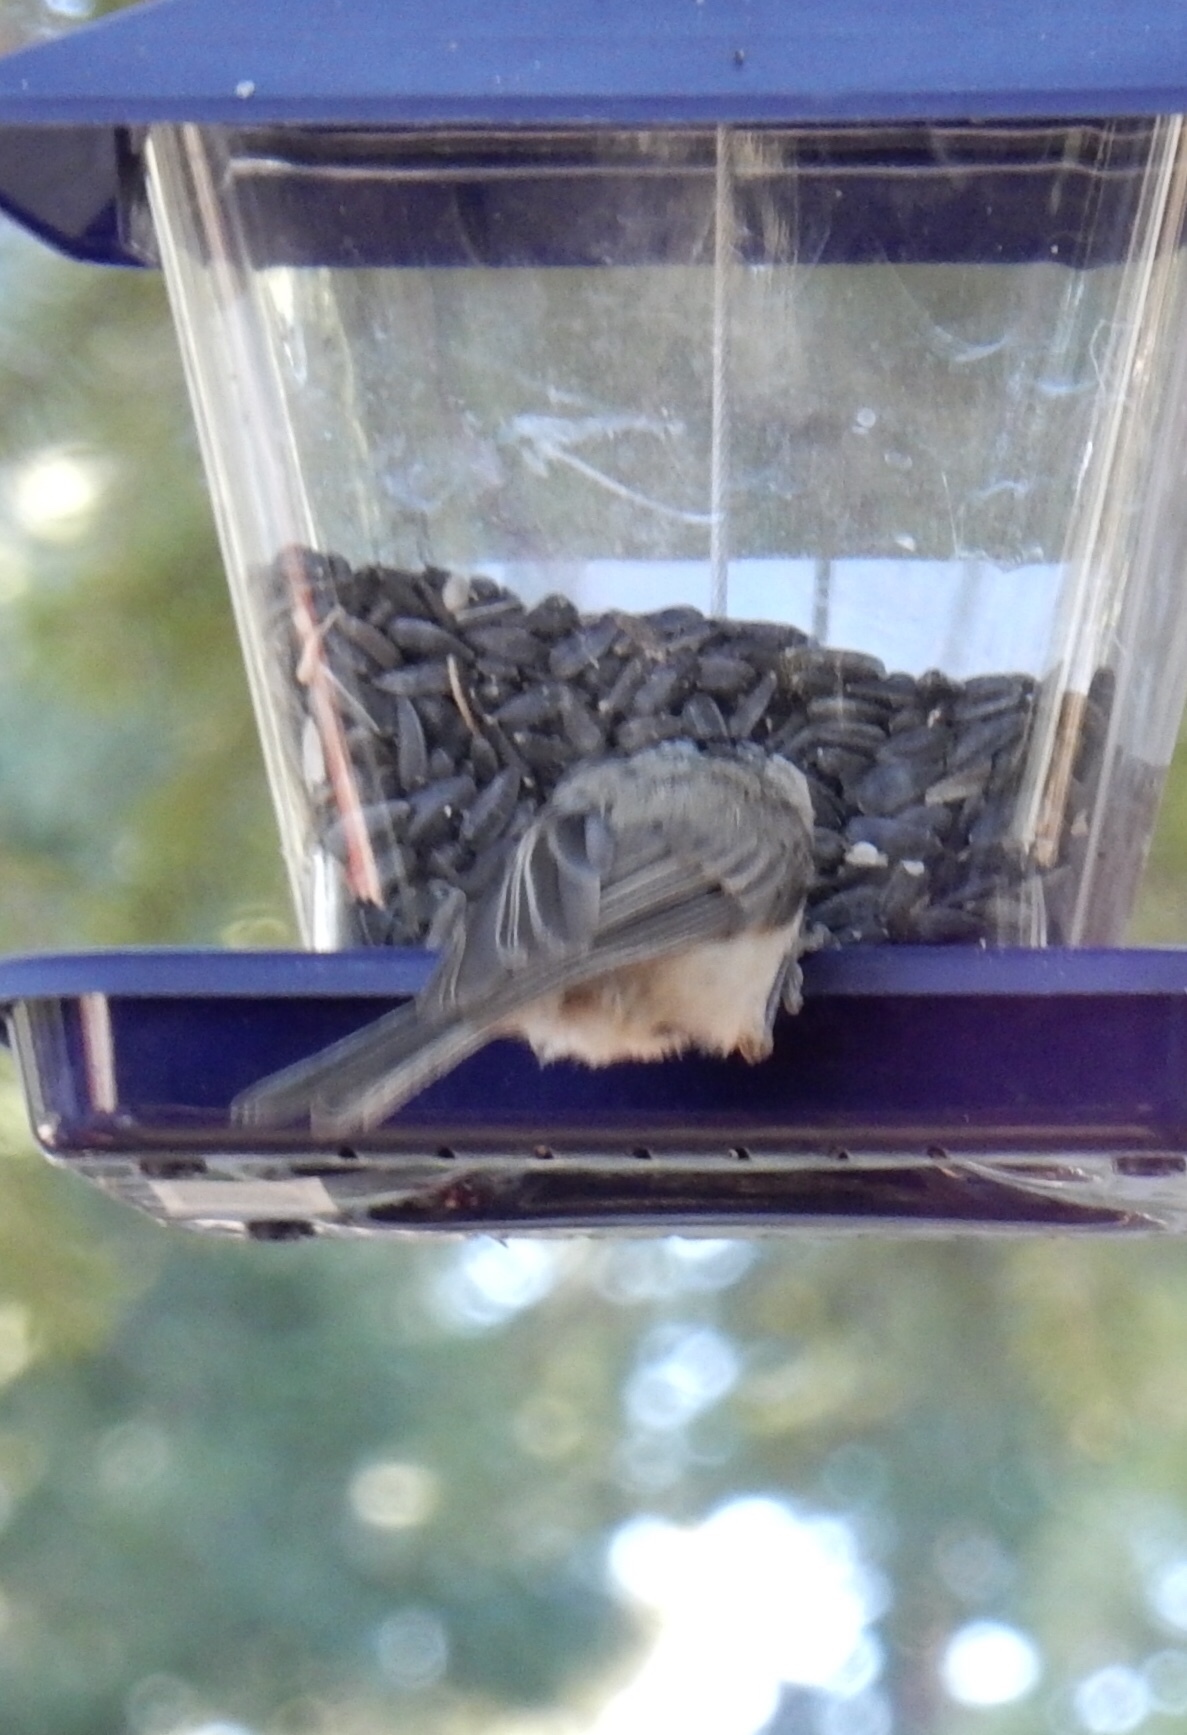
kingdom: Animalia
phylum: Chordata
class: Aves
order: Passeriformes
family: Paridae
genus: Poecile
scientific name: Poecile gambeli
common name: Mountain chickadee
